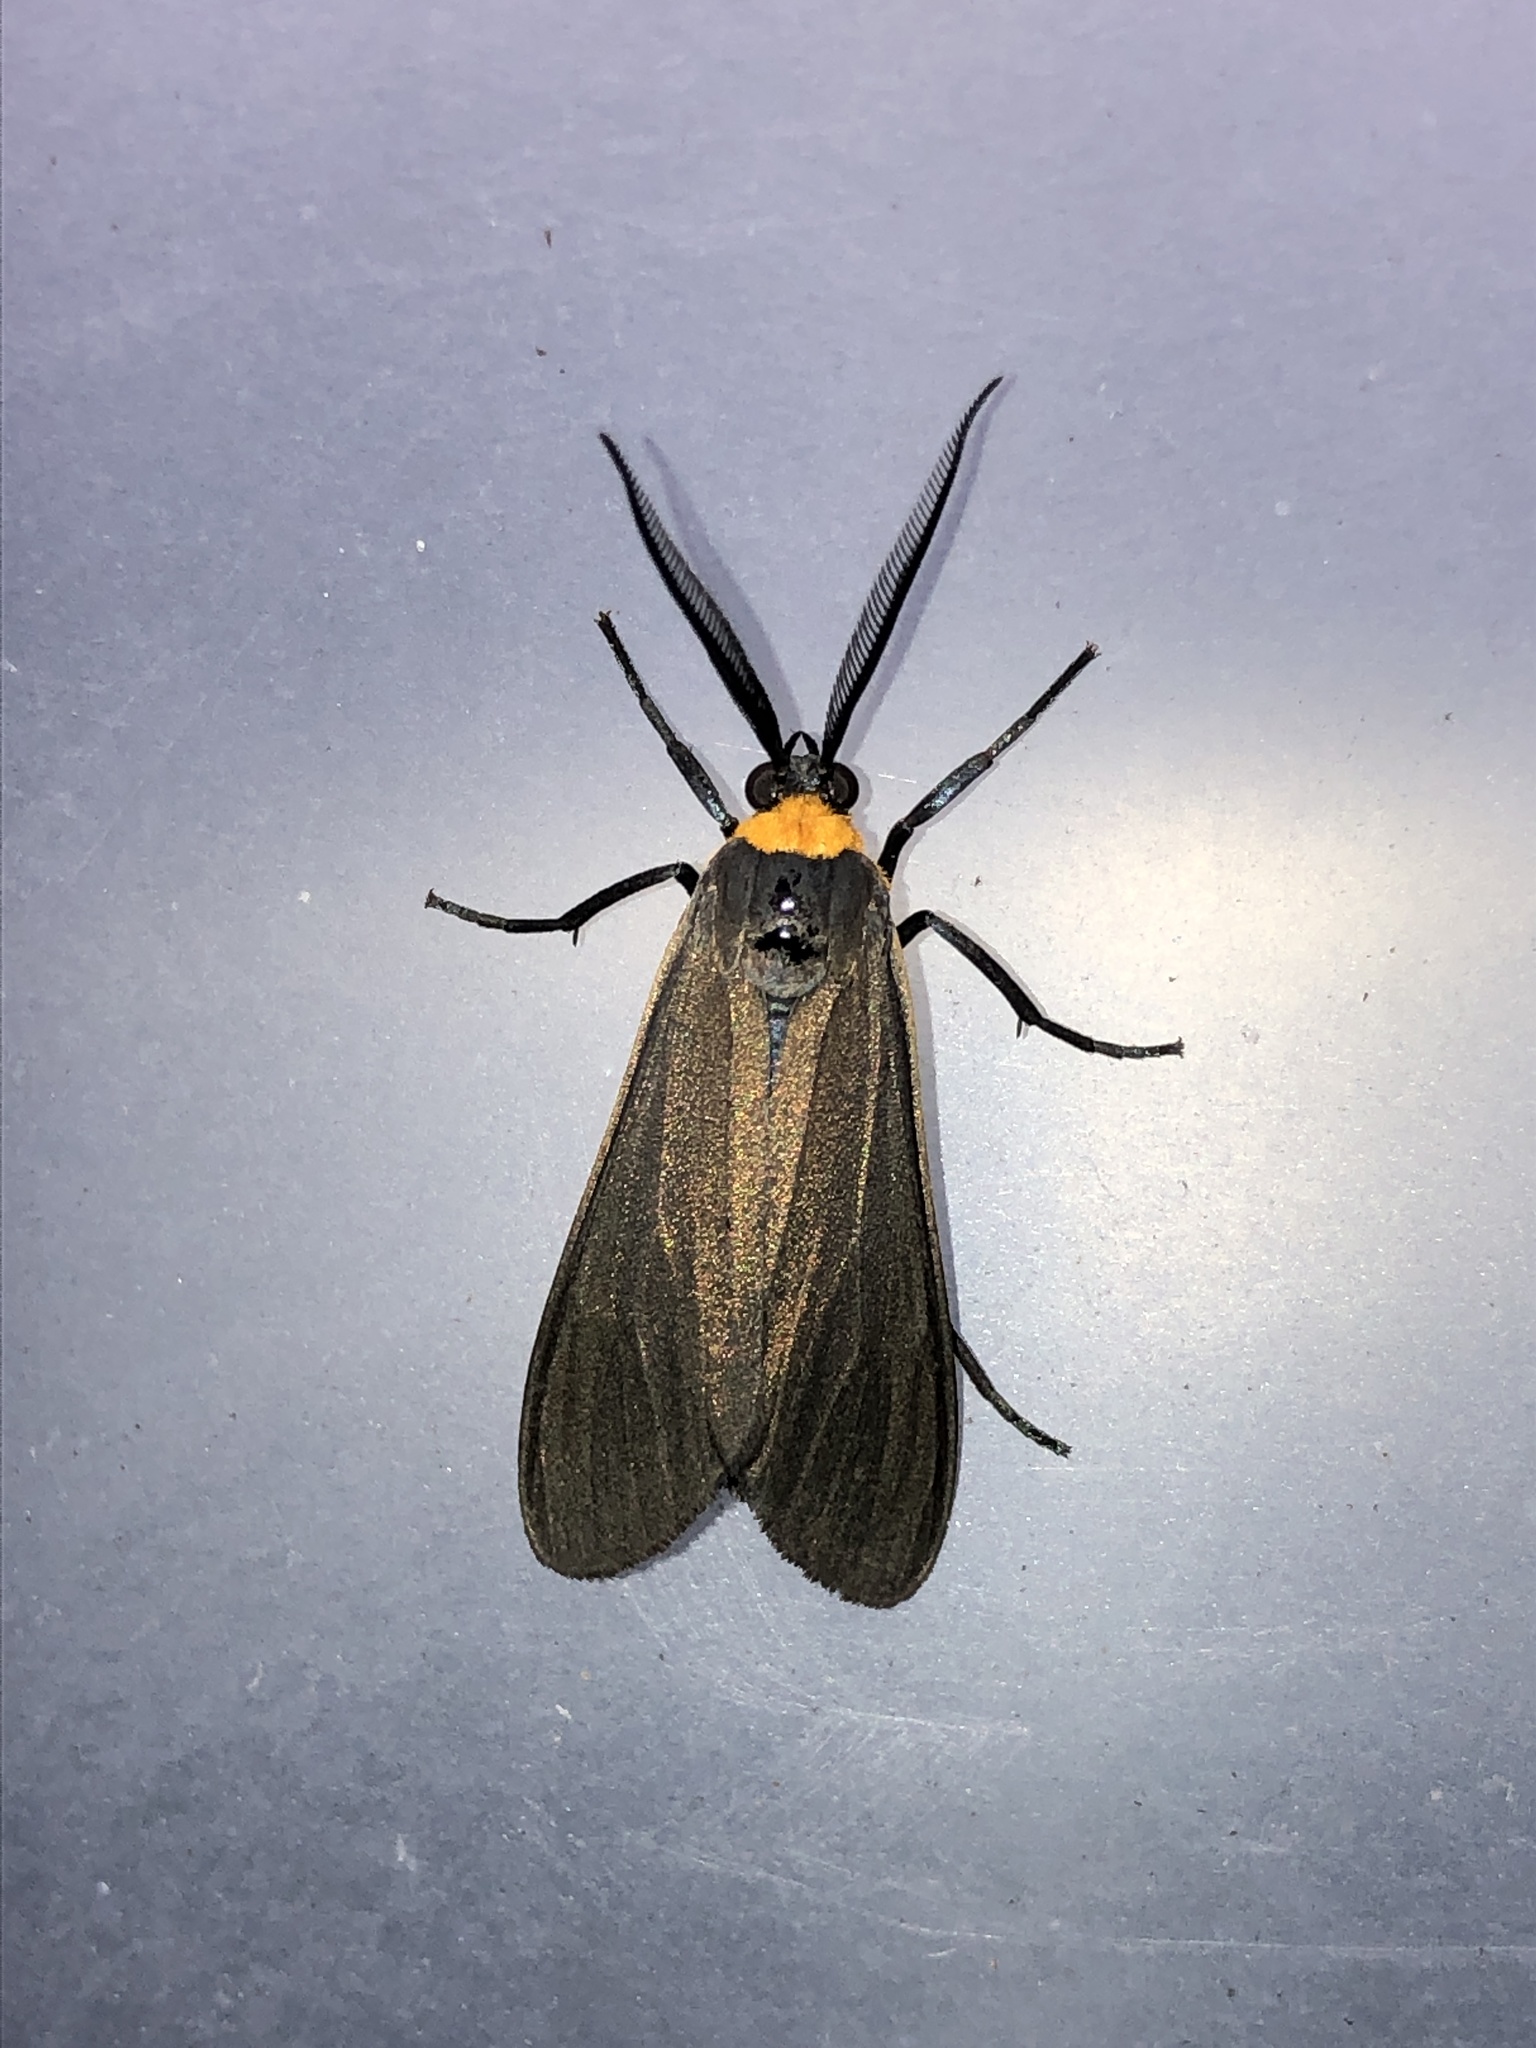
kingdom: Animalia
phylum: Arthropoda
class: Insecta
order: Lepidoptera
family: Erebidae
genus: Cisseps
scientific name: Cisseps fulvicollis
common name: Yellow-collared scape moth
